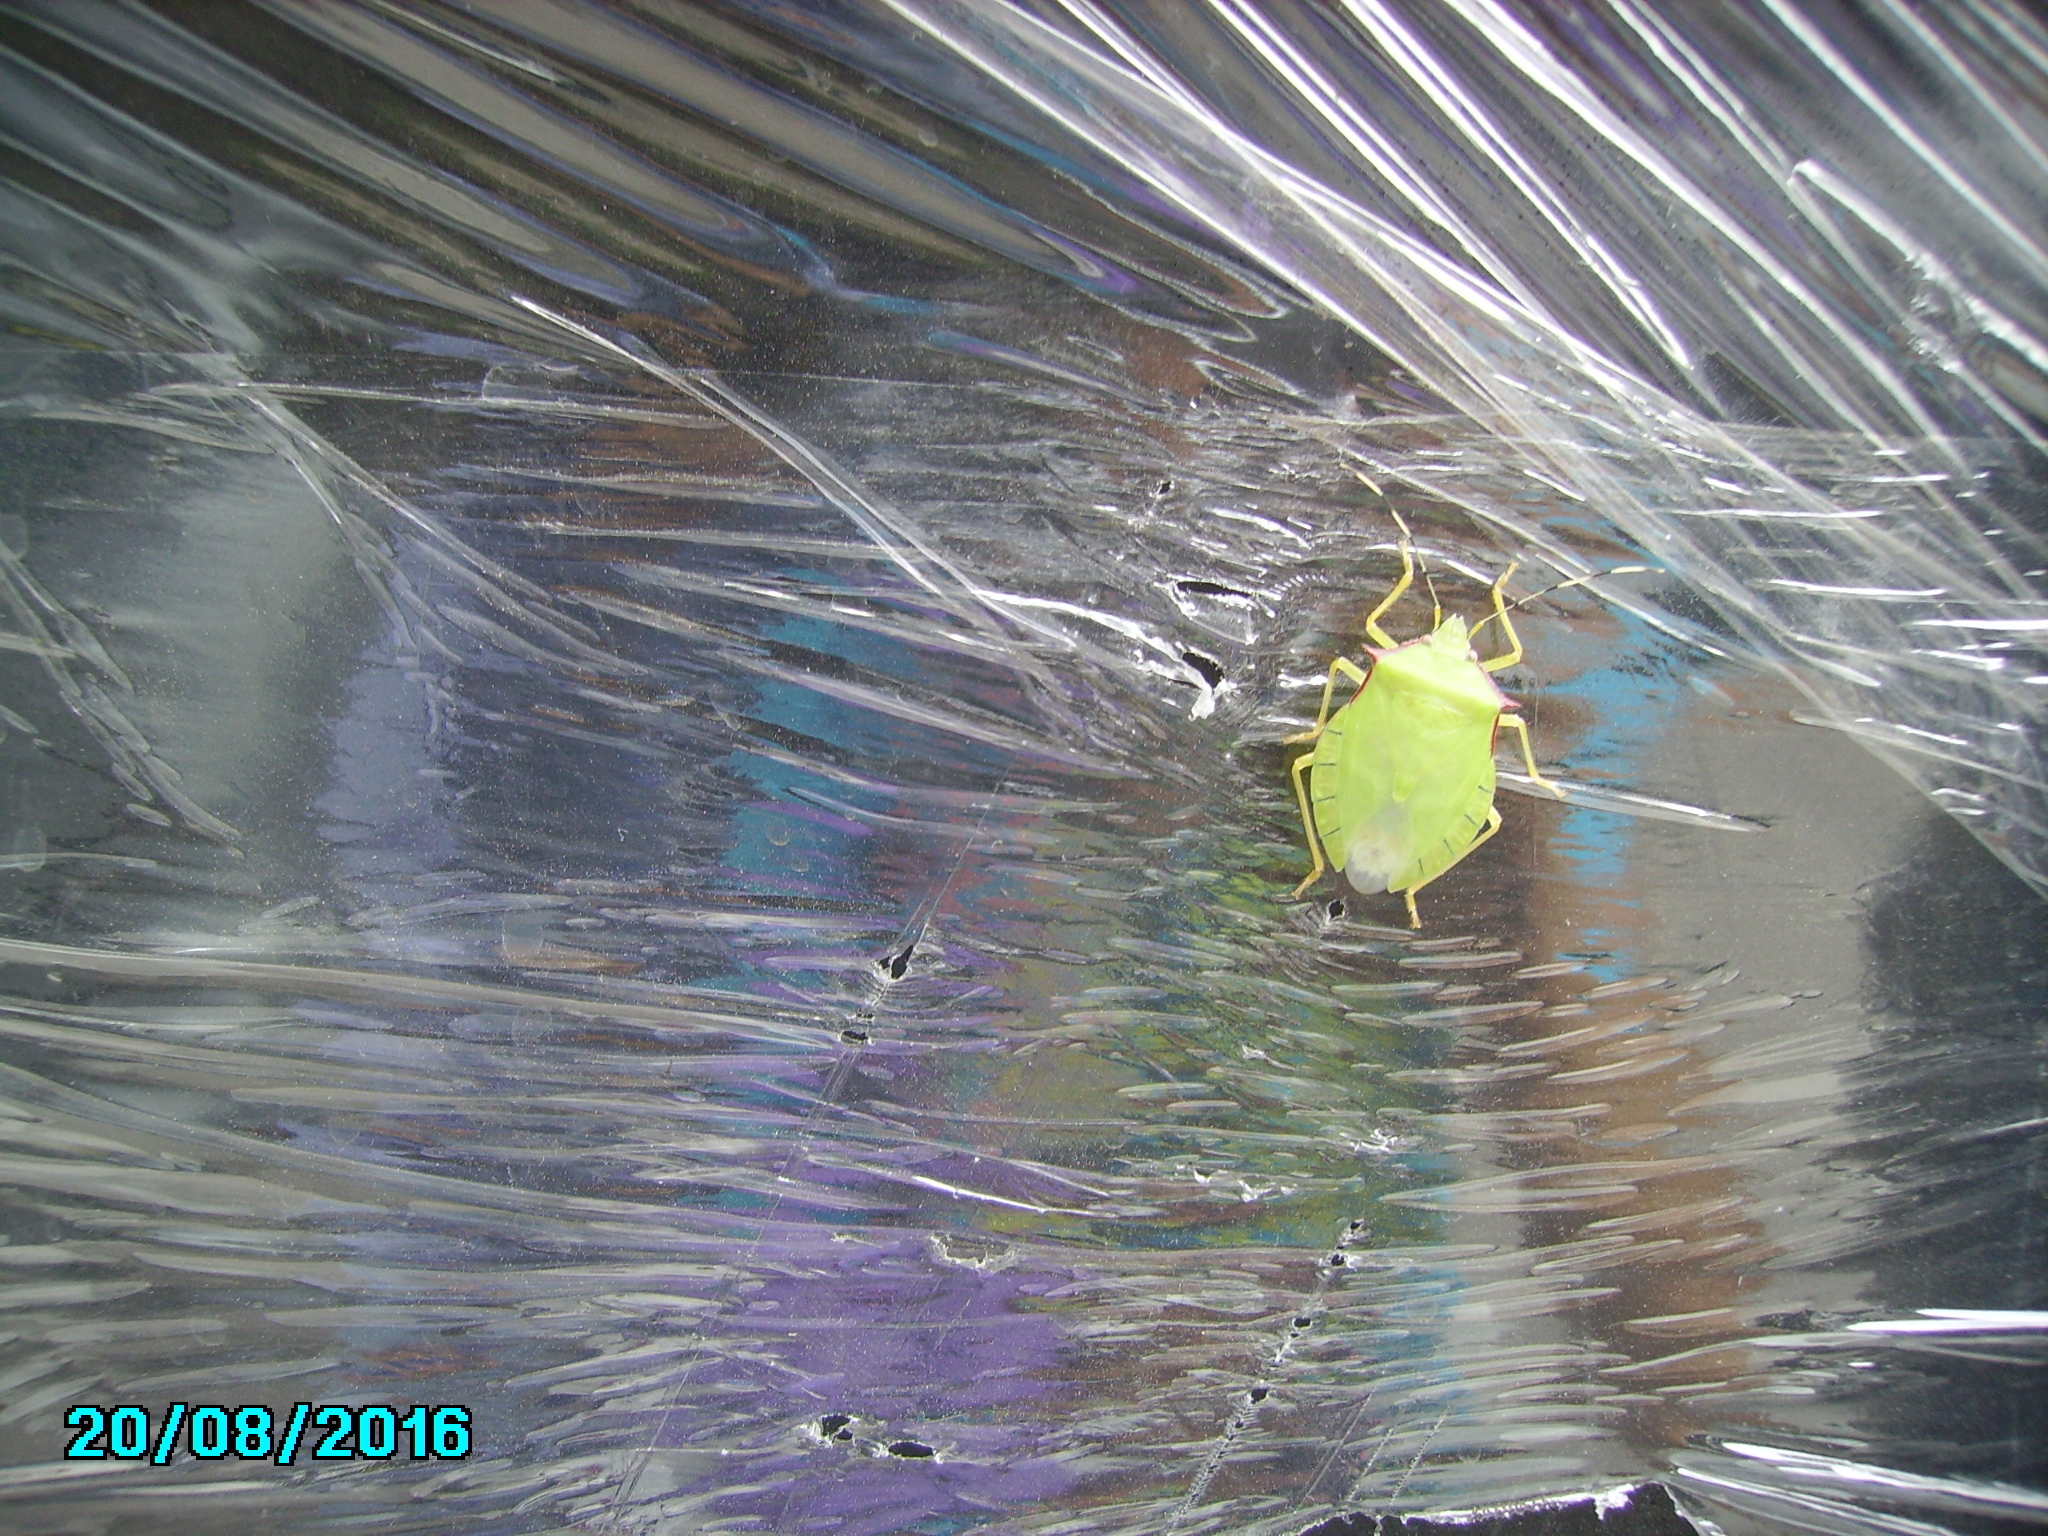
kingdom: Animalia
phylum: Arthropoda
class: Insecta
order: Hemiptera
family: Pentatomidae
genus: Chlorocoris
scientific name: Chlorocoris distinctus
